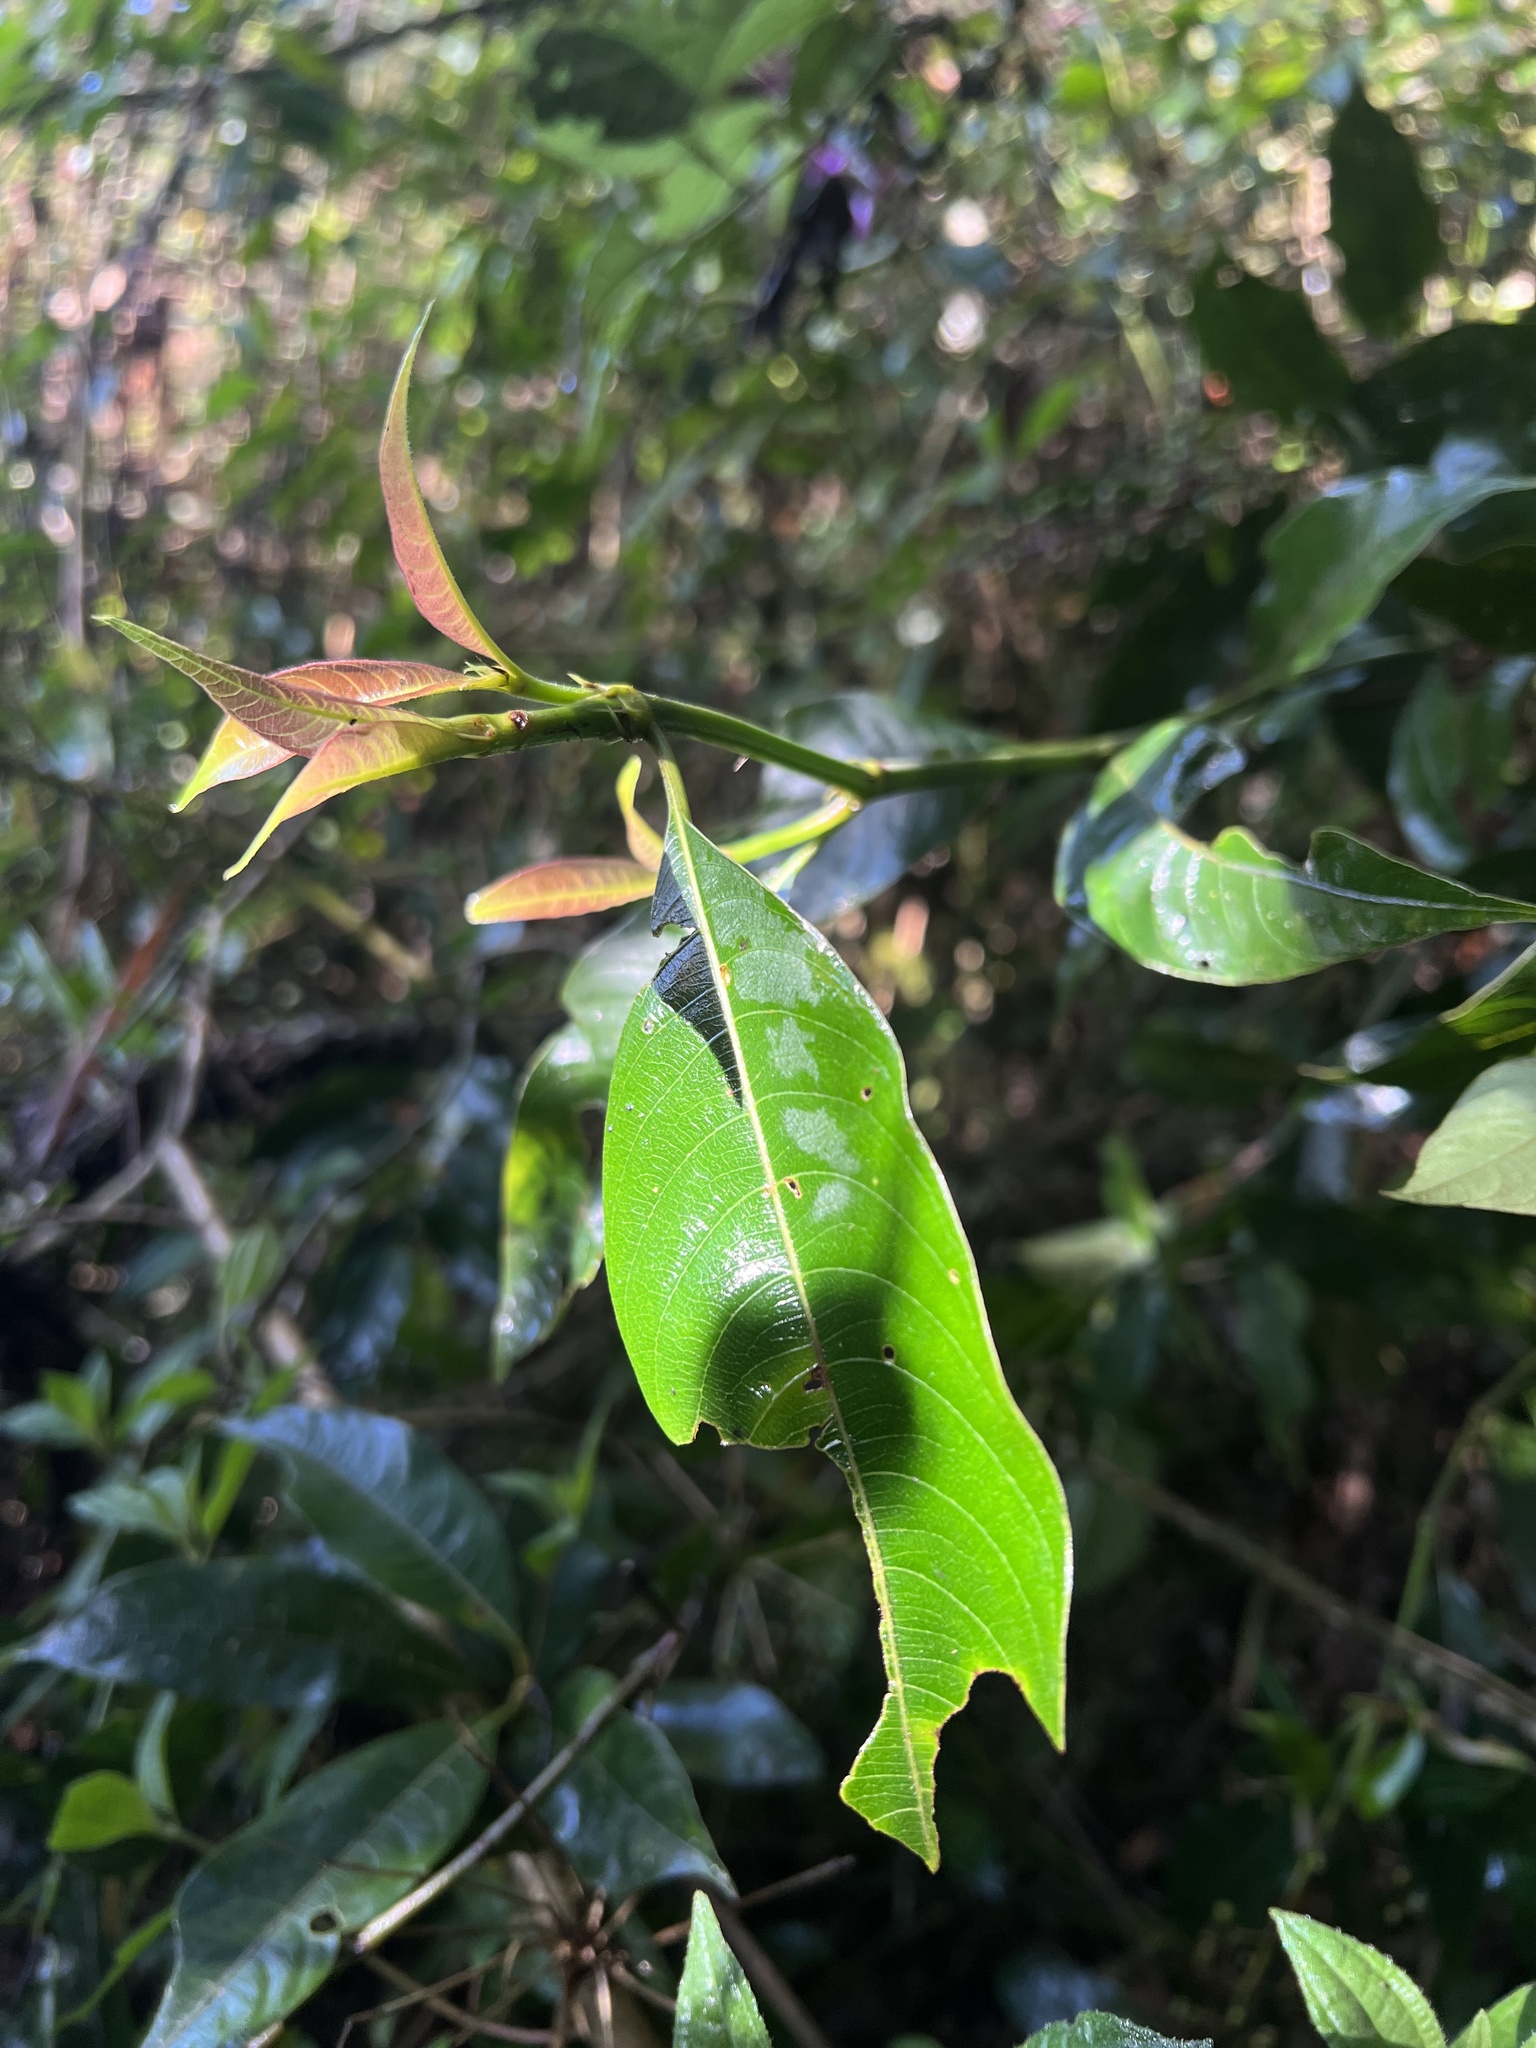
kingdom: Plantae
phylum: Tracheophyta
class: Magnoliopsida
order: Gentianales
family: Rubiaceae
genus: Palicourea
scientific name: Palicourea angustifolia
